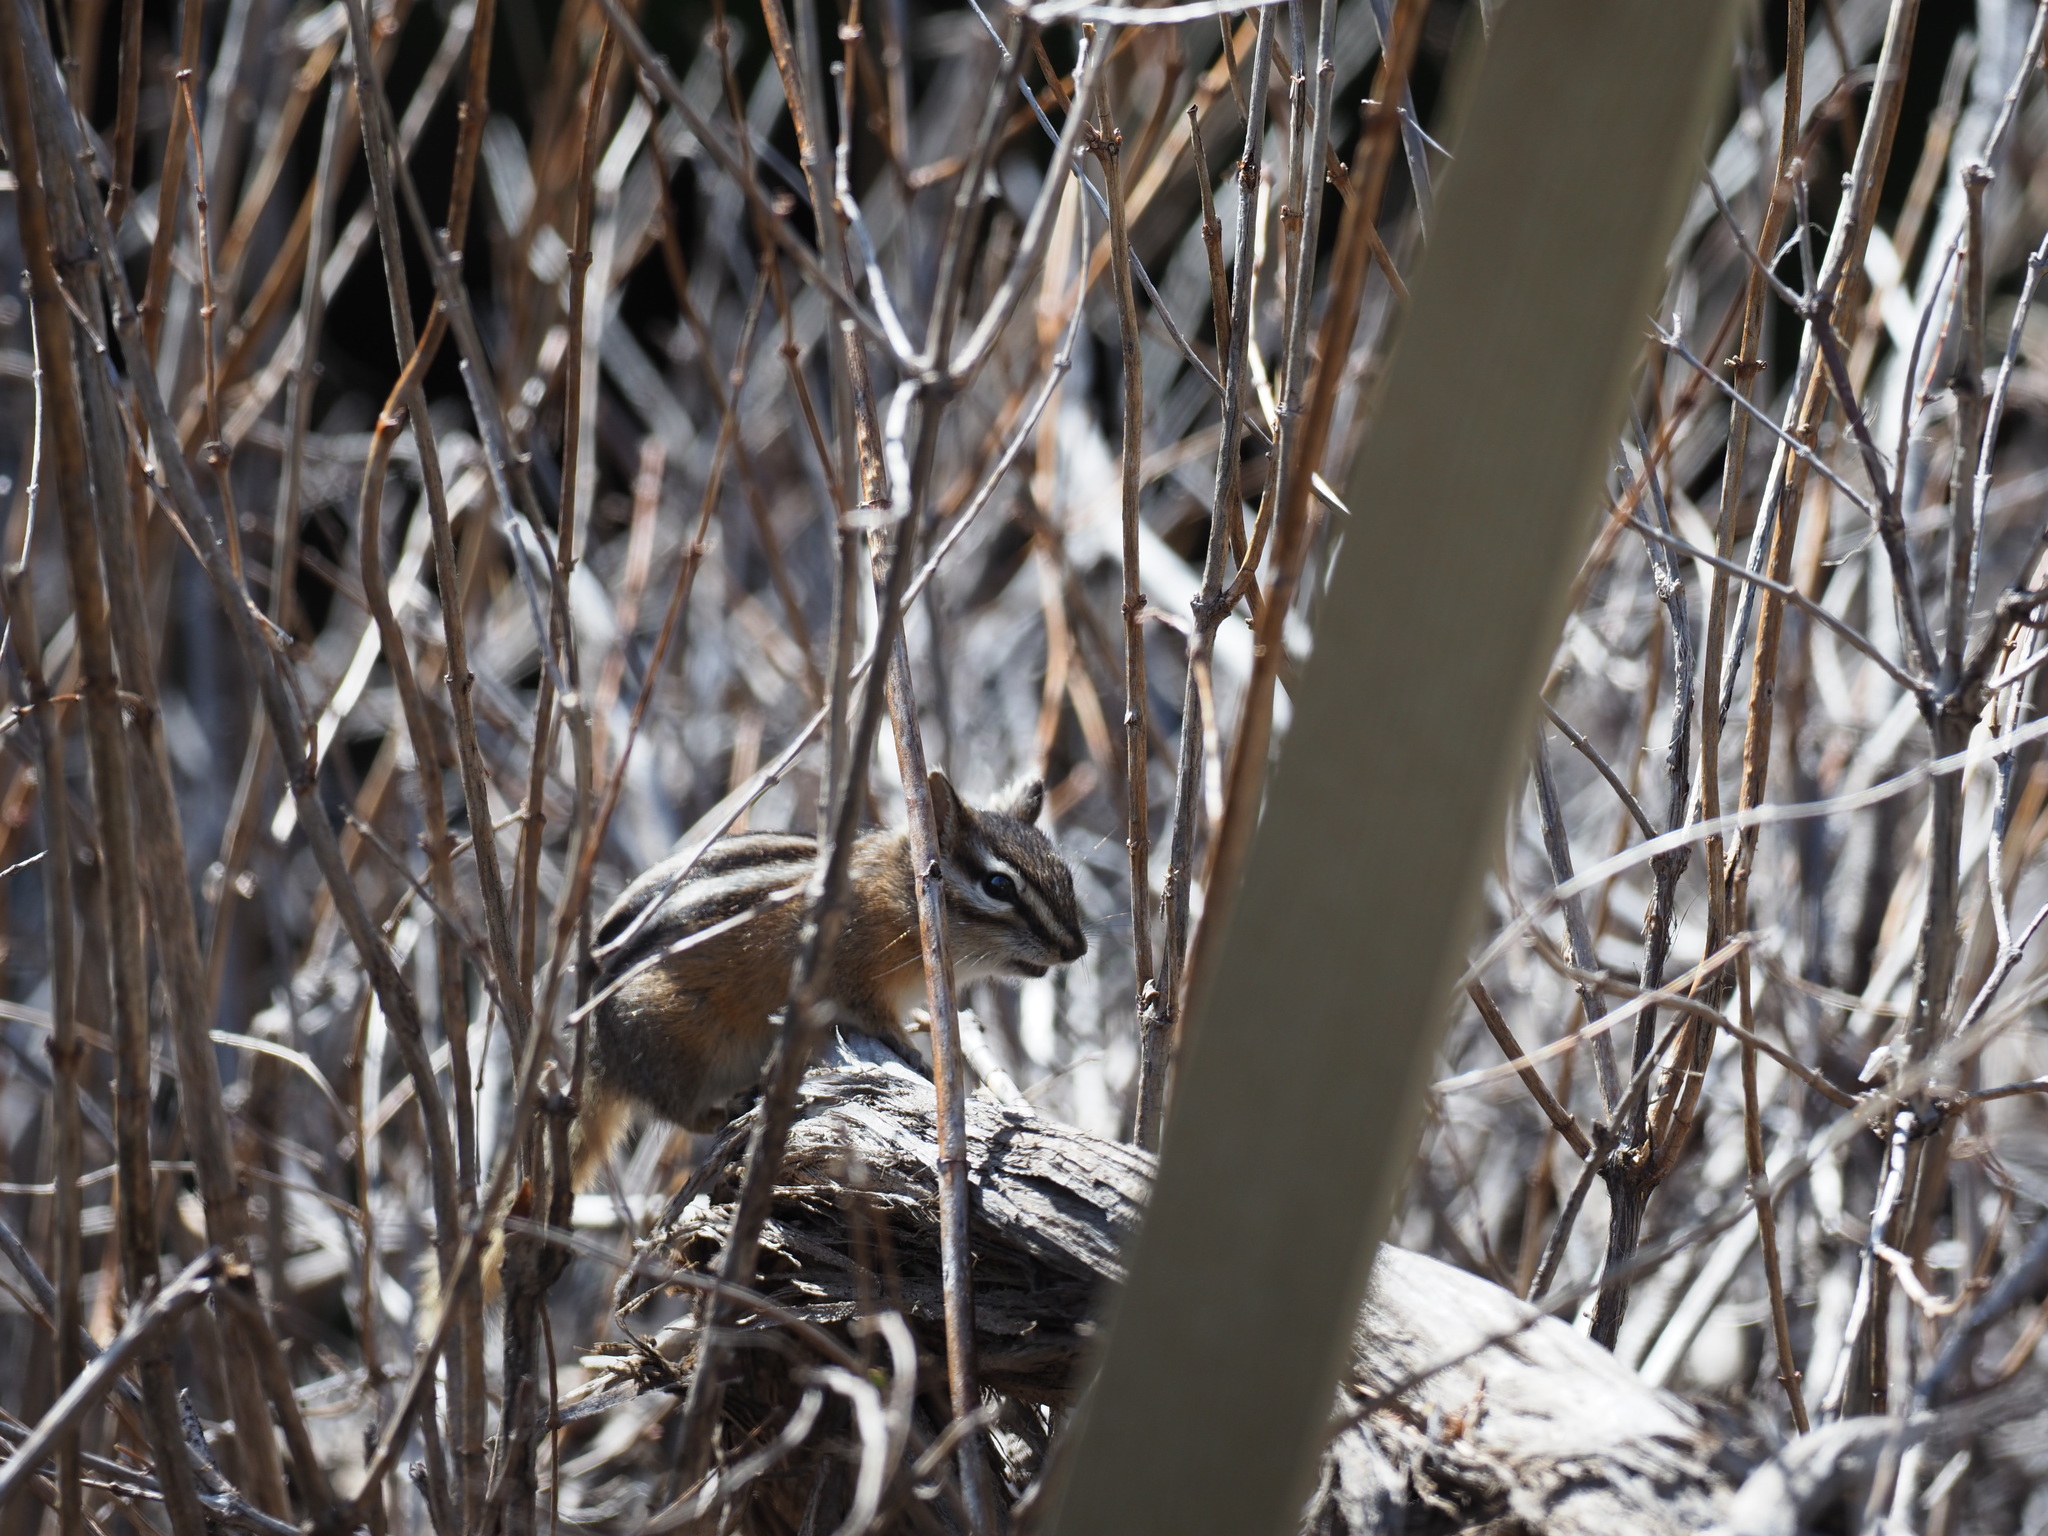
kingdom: Animalia
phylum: Chordata
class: Mammalia
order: Rodentia
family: Sciuridae
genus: Tamias
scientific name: Tamias amoenus
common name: Yellow-pine chipmunk
